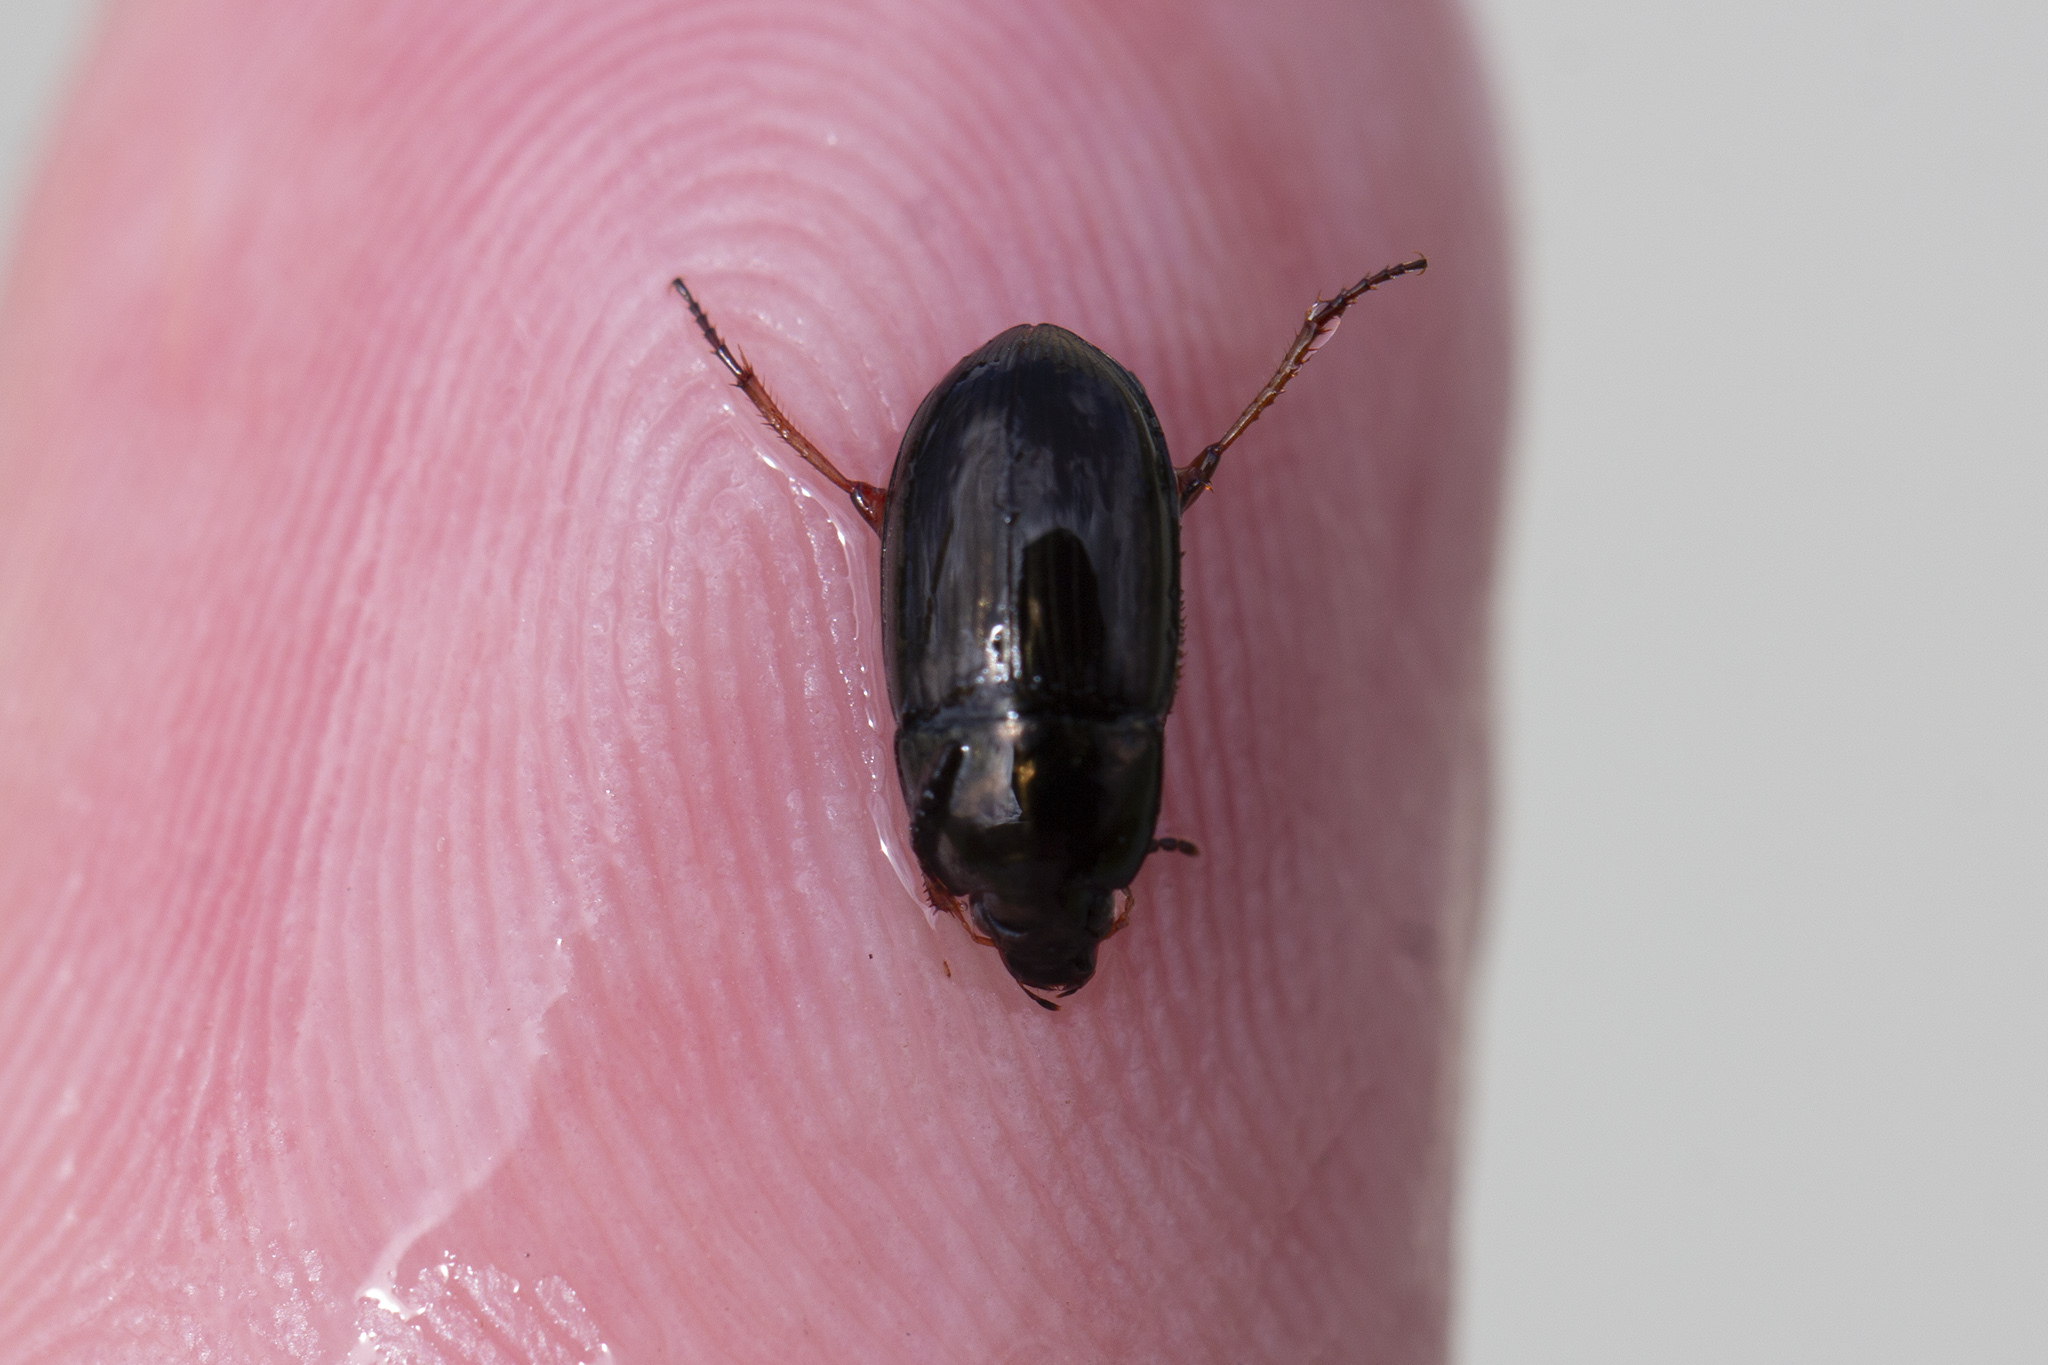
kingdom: Animalia
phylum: Arthropoda
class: Insecta
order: Coleoptera
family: Carabidae
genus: Amara
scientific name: Amara familiaris
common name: Familiar harp round beetle
